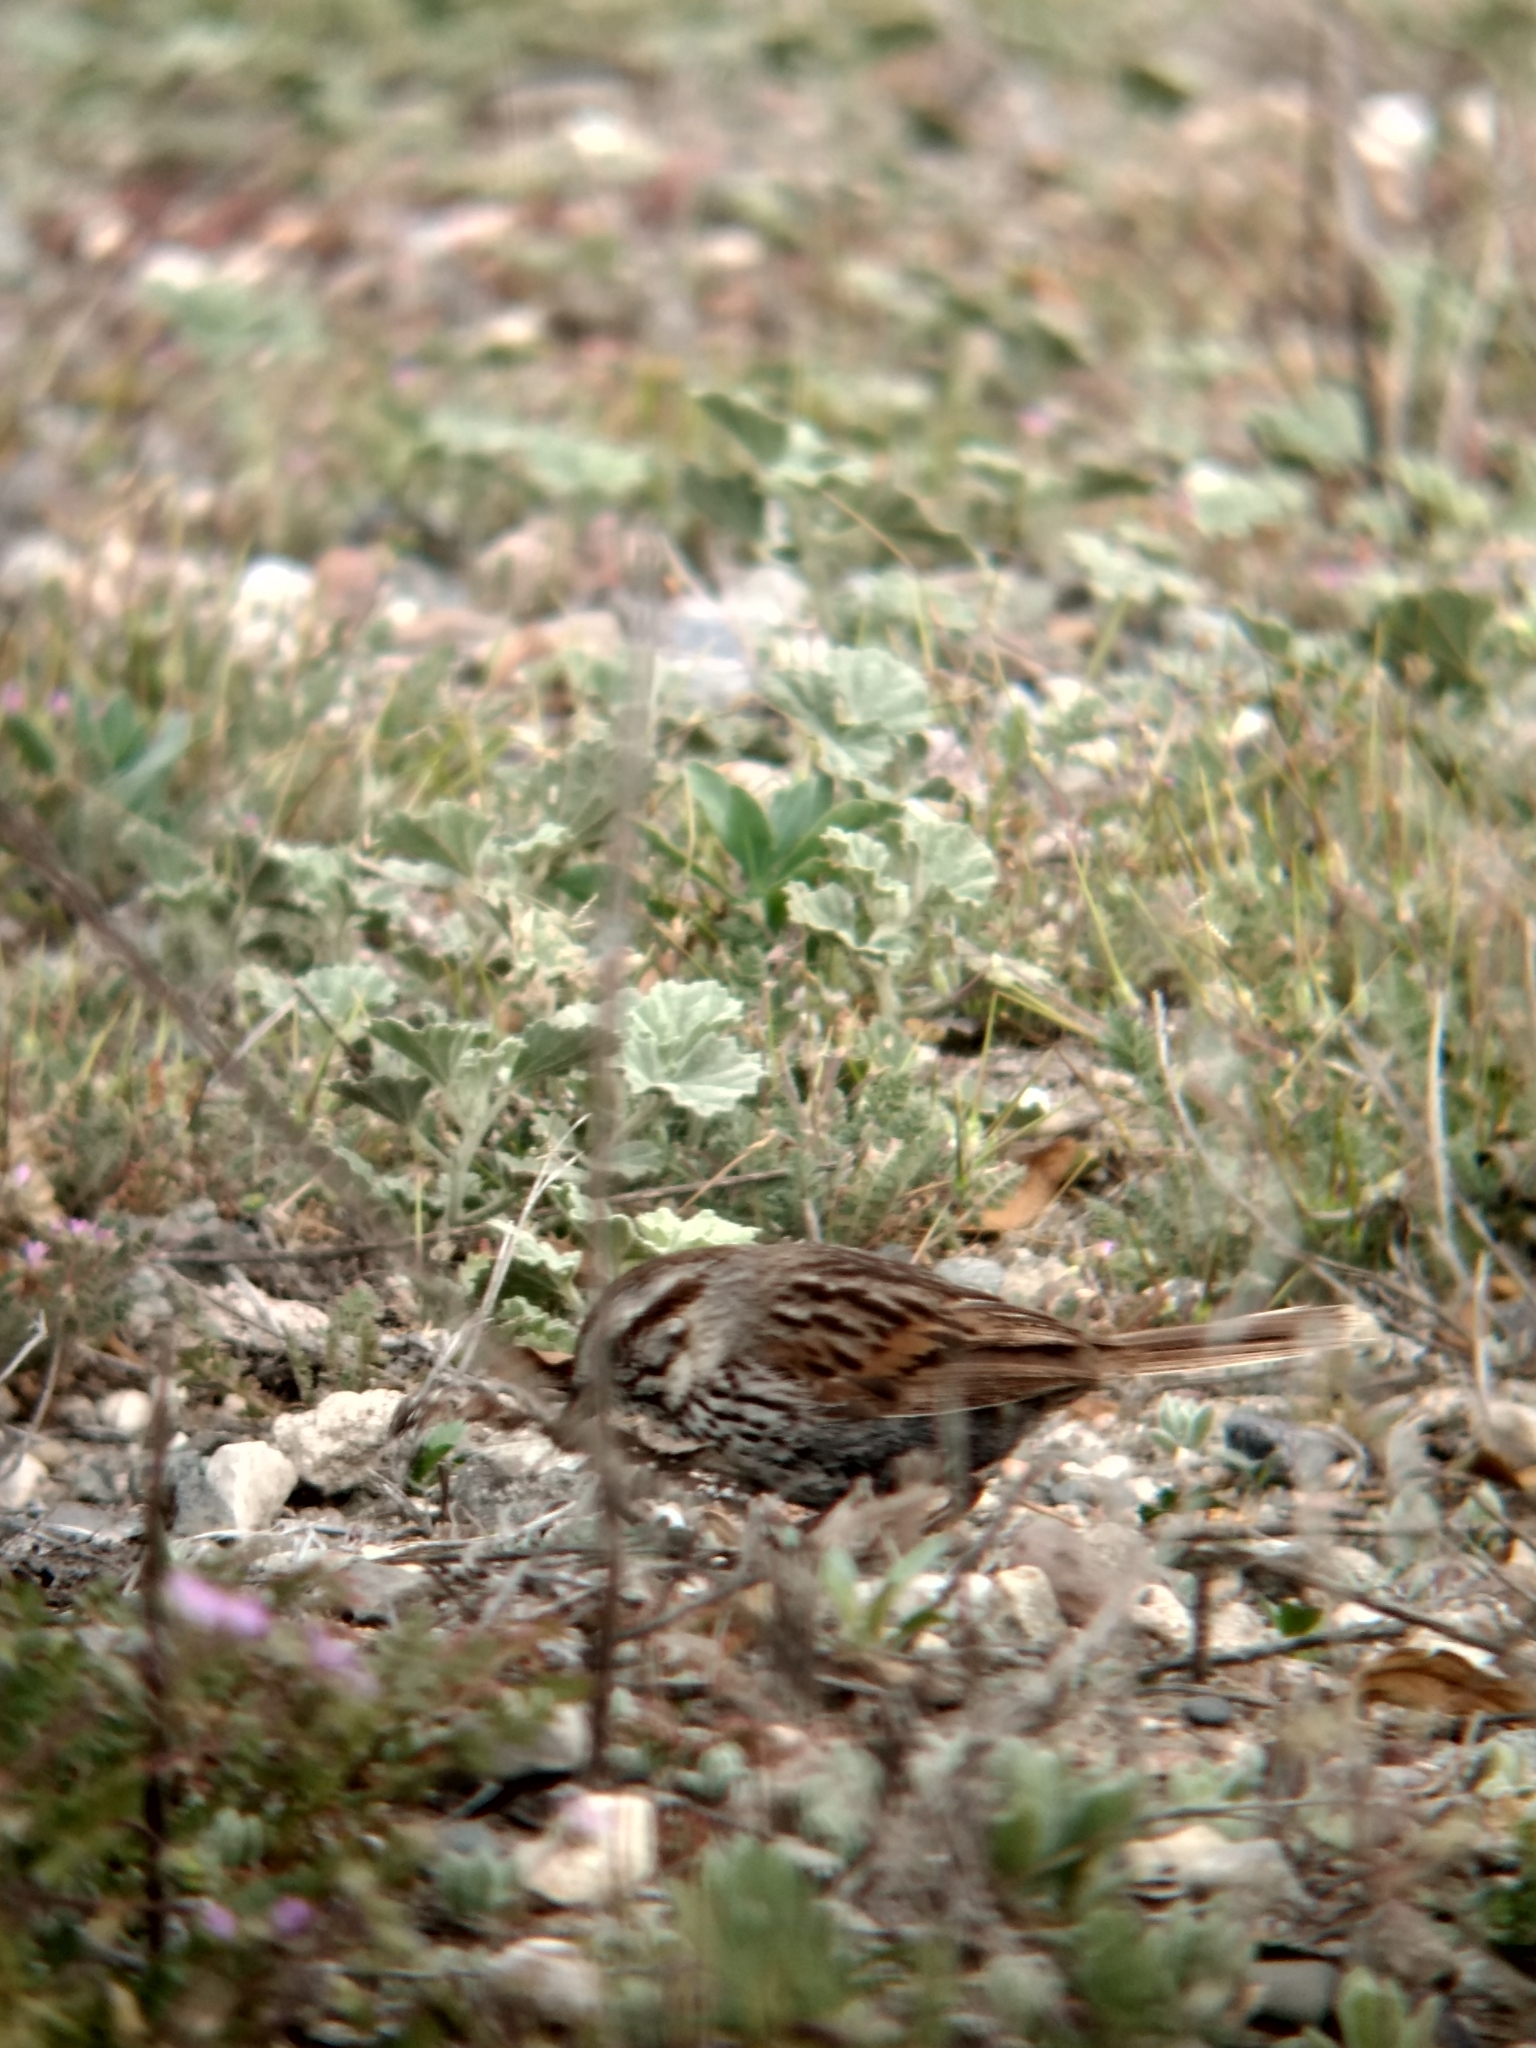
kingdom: Animalia
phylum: Chordata
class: Aves
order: Passeriformes
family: Passerellidae
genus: Melospiza
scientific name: Melospiza melodia
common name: Song sparrow
